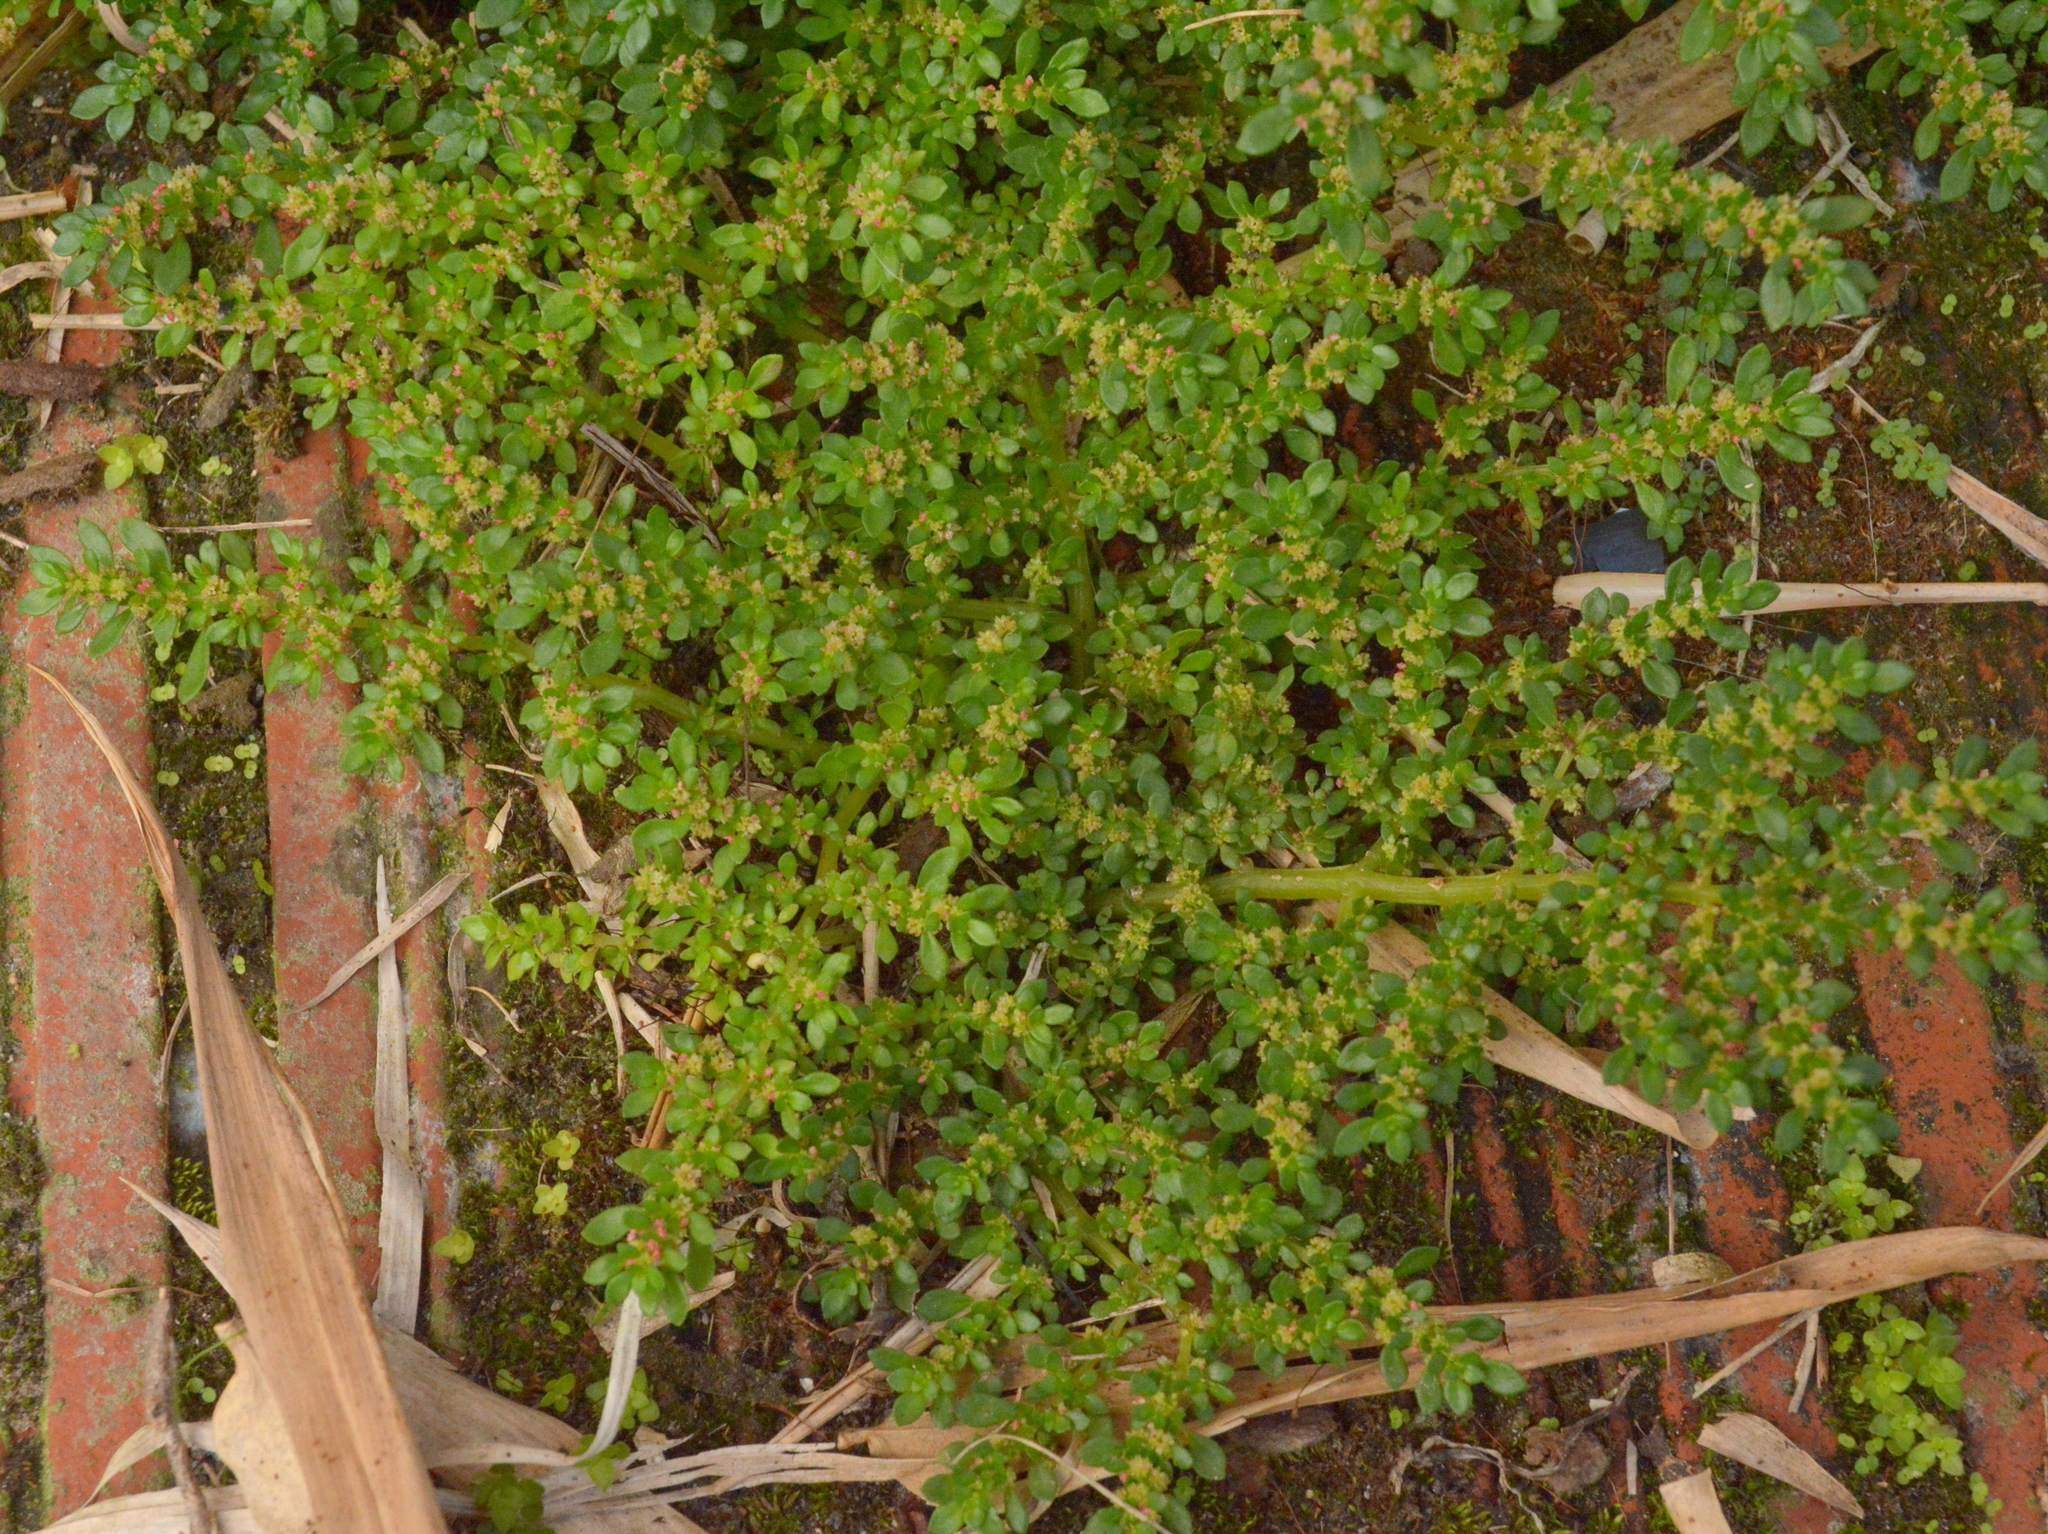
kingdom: Plantae
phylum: Tracheophyta
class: Magnoliopsida
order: Rosales
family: Urticaceae
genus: Pilea
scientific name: Pilea microphylla
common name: Artillery-plant
